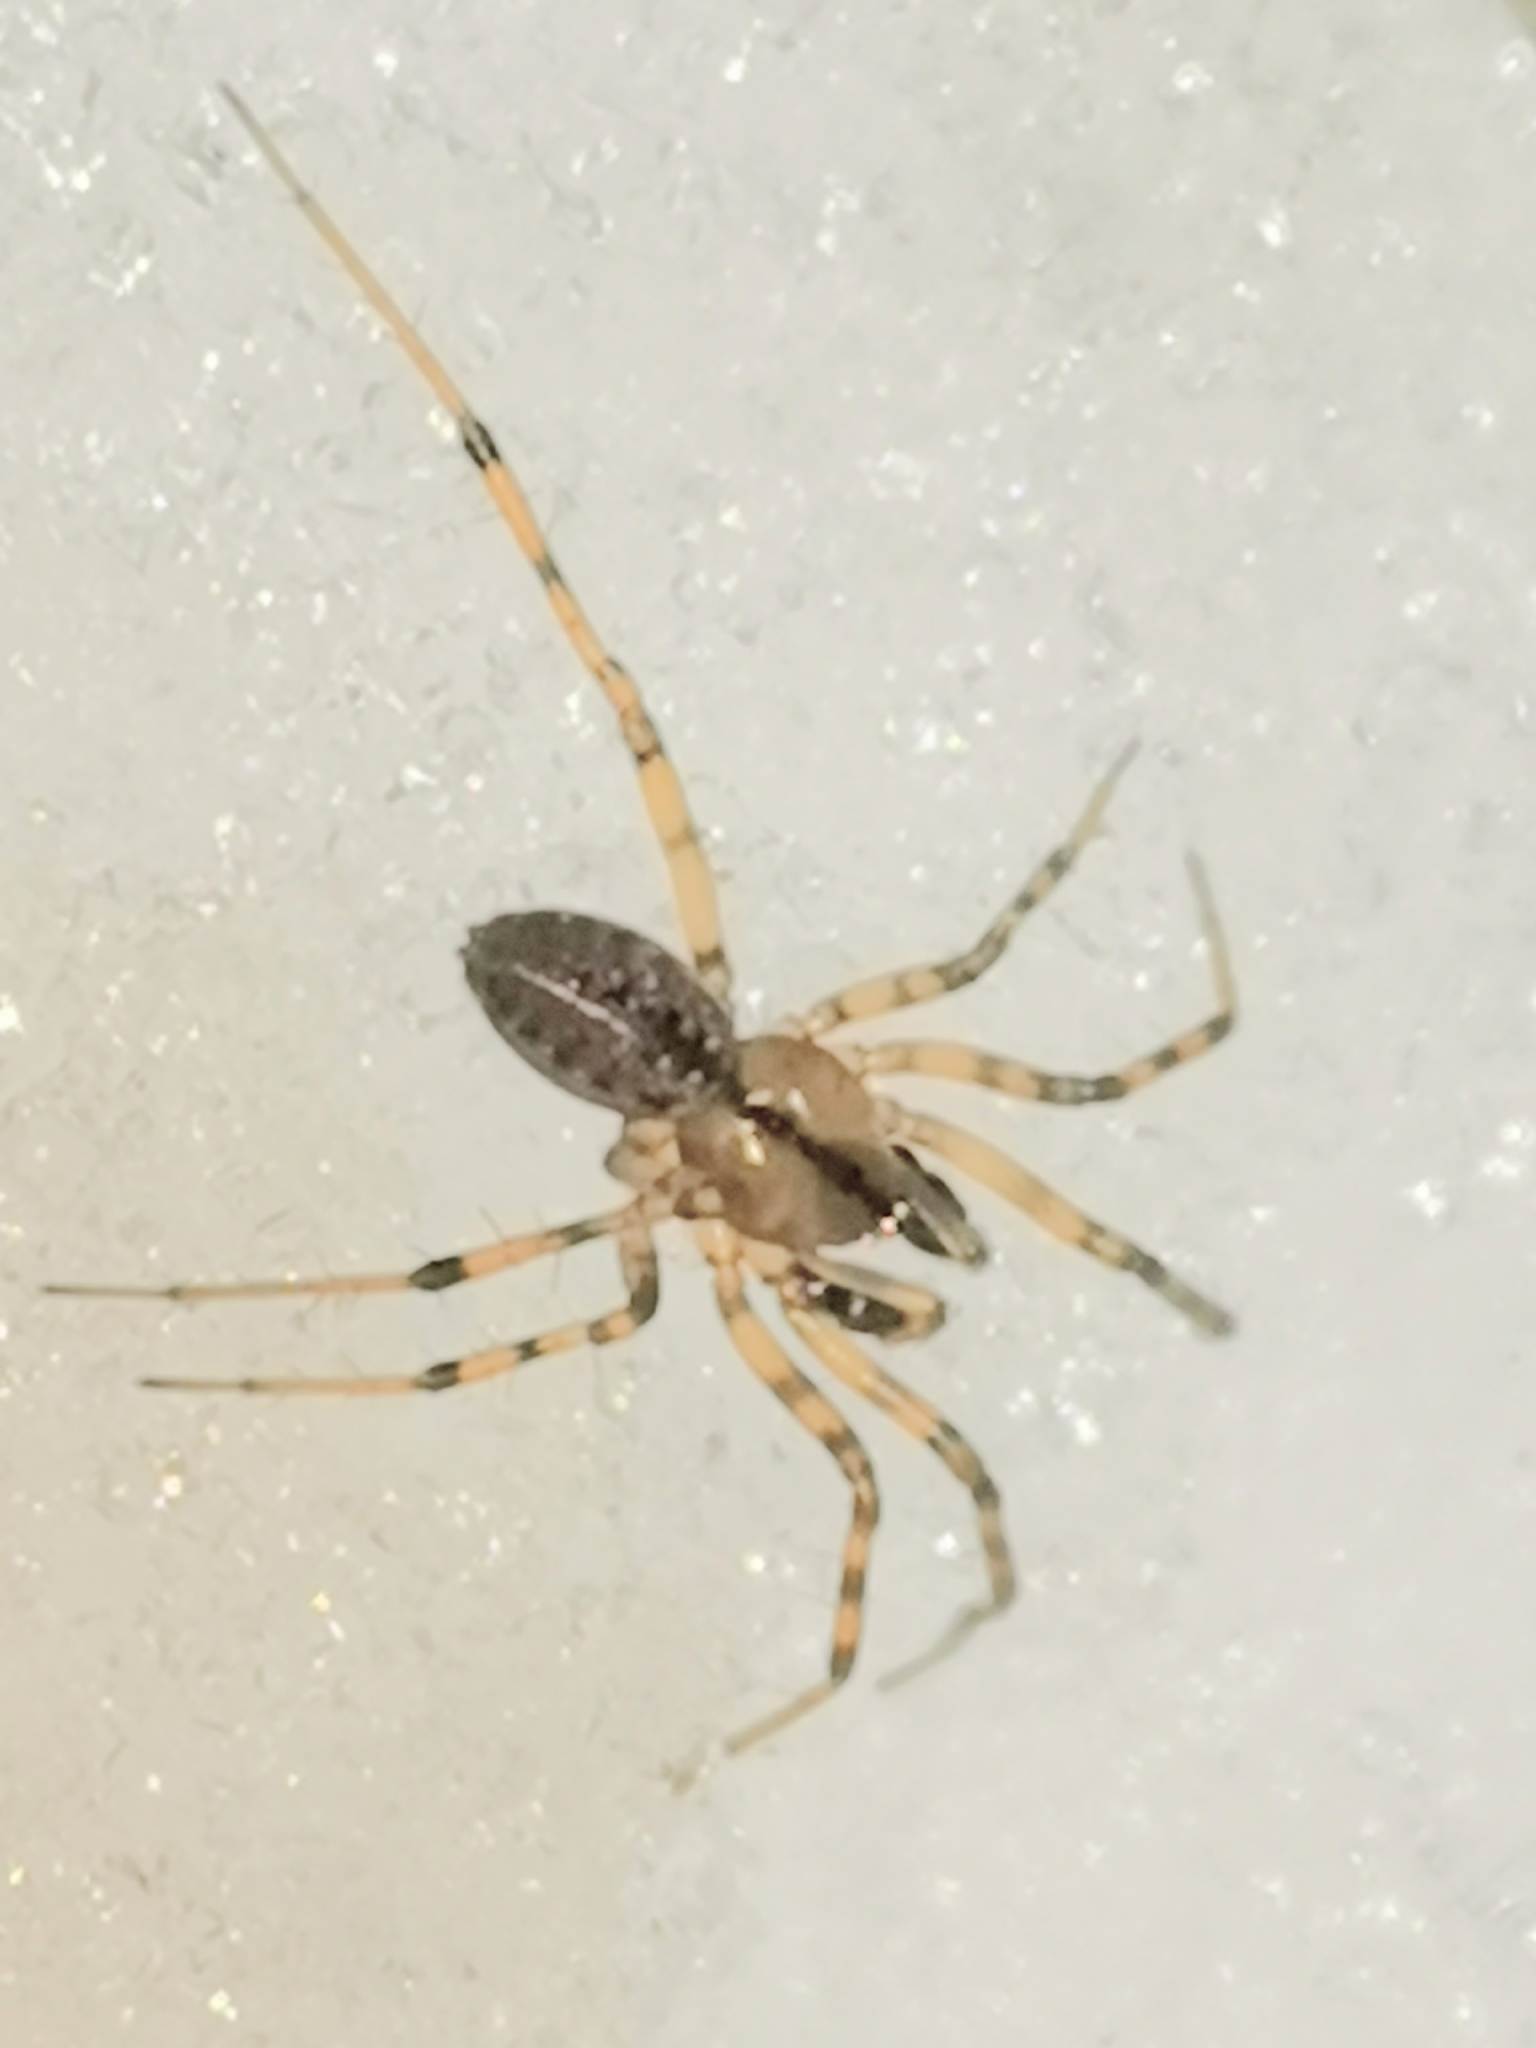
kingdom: Animalia
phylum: Arthropoda
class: Arachnida
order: Araneae
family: Linyphiidae
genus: Stemonyphantes
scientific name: Stemonyphantes lineatus
